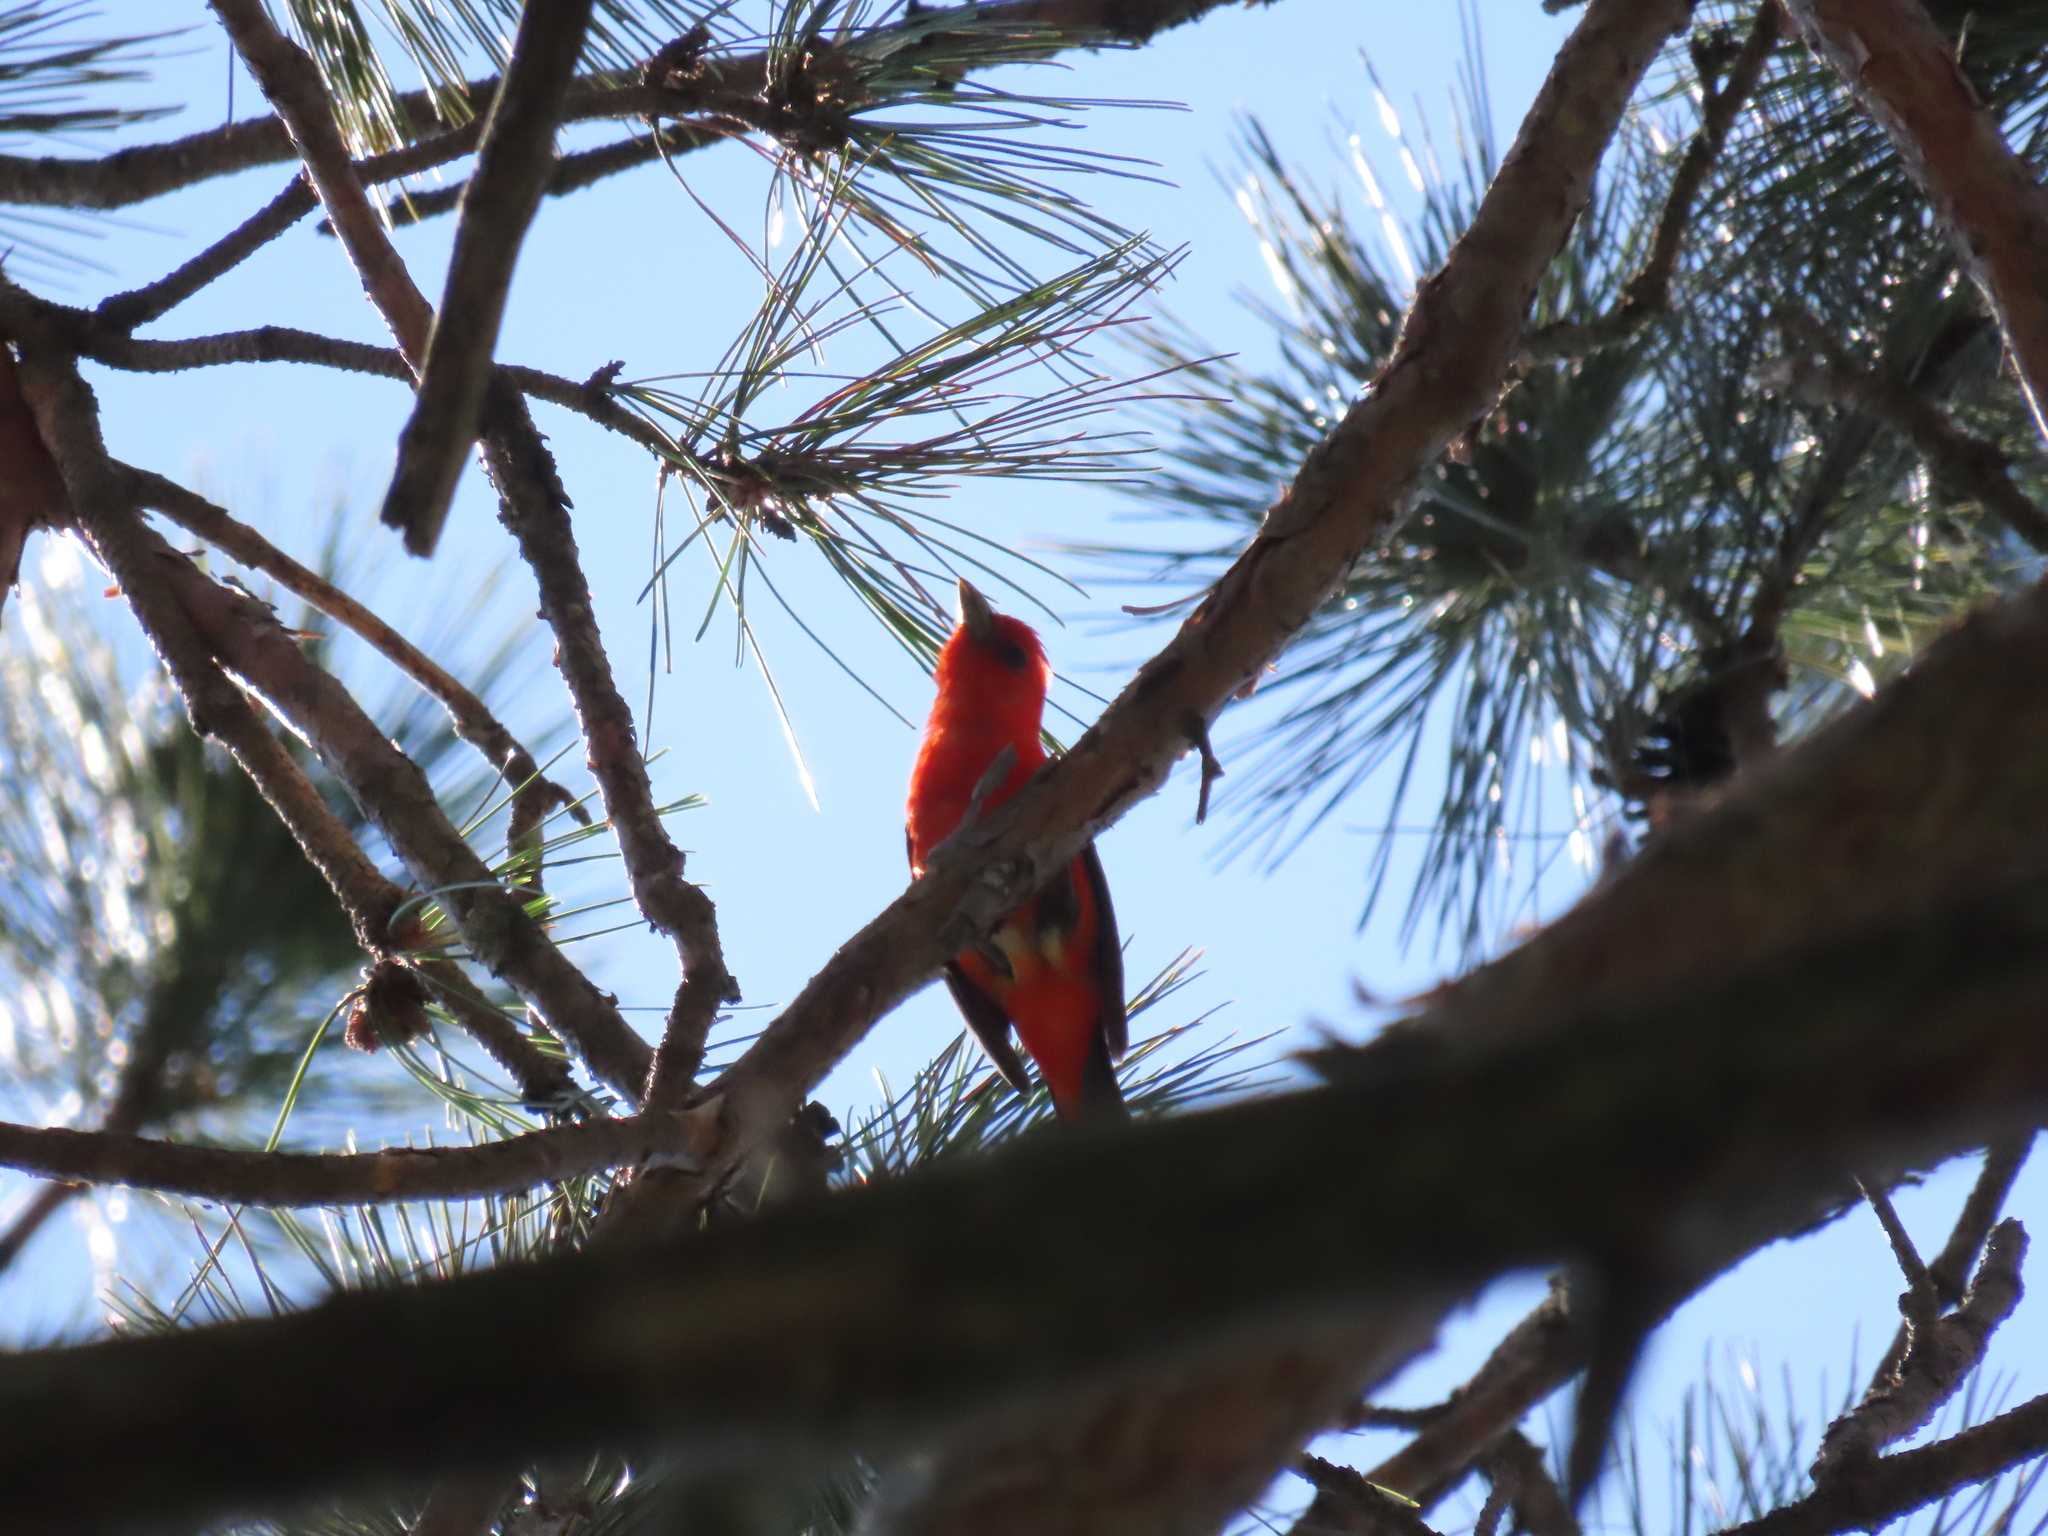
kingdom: Animalia
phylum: Chordata
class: Aves
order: Passeriformes
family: Cardinalidae
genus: Piranga
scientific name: Piranga olivacea
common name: Scarlet tanager
